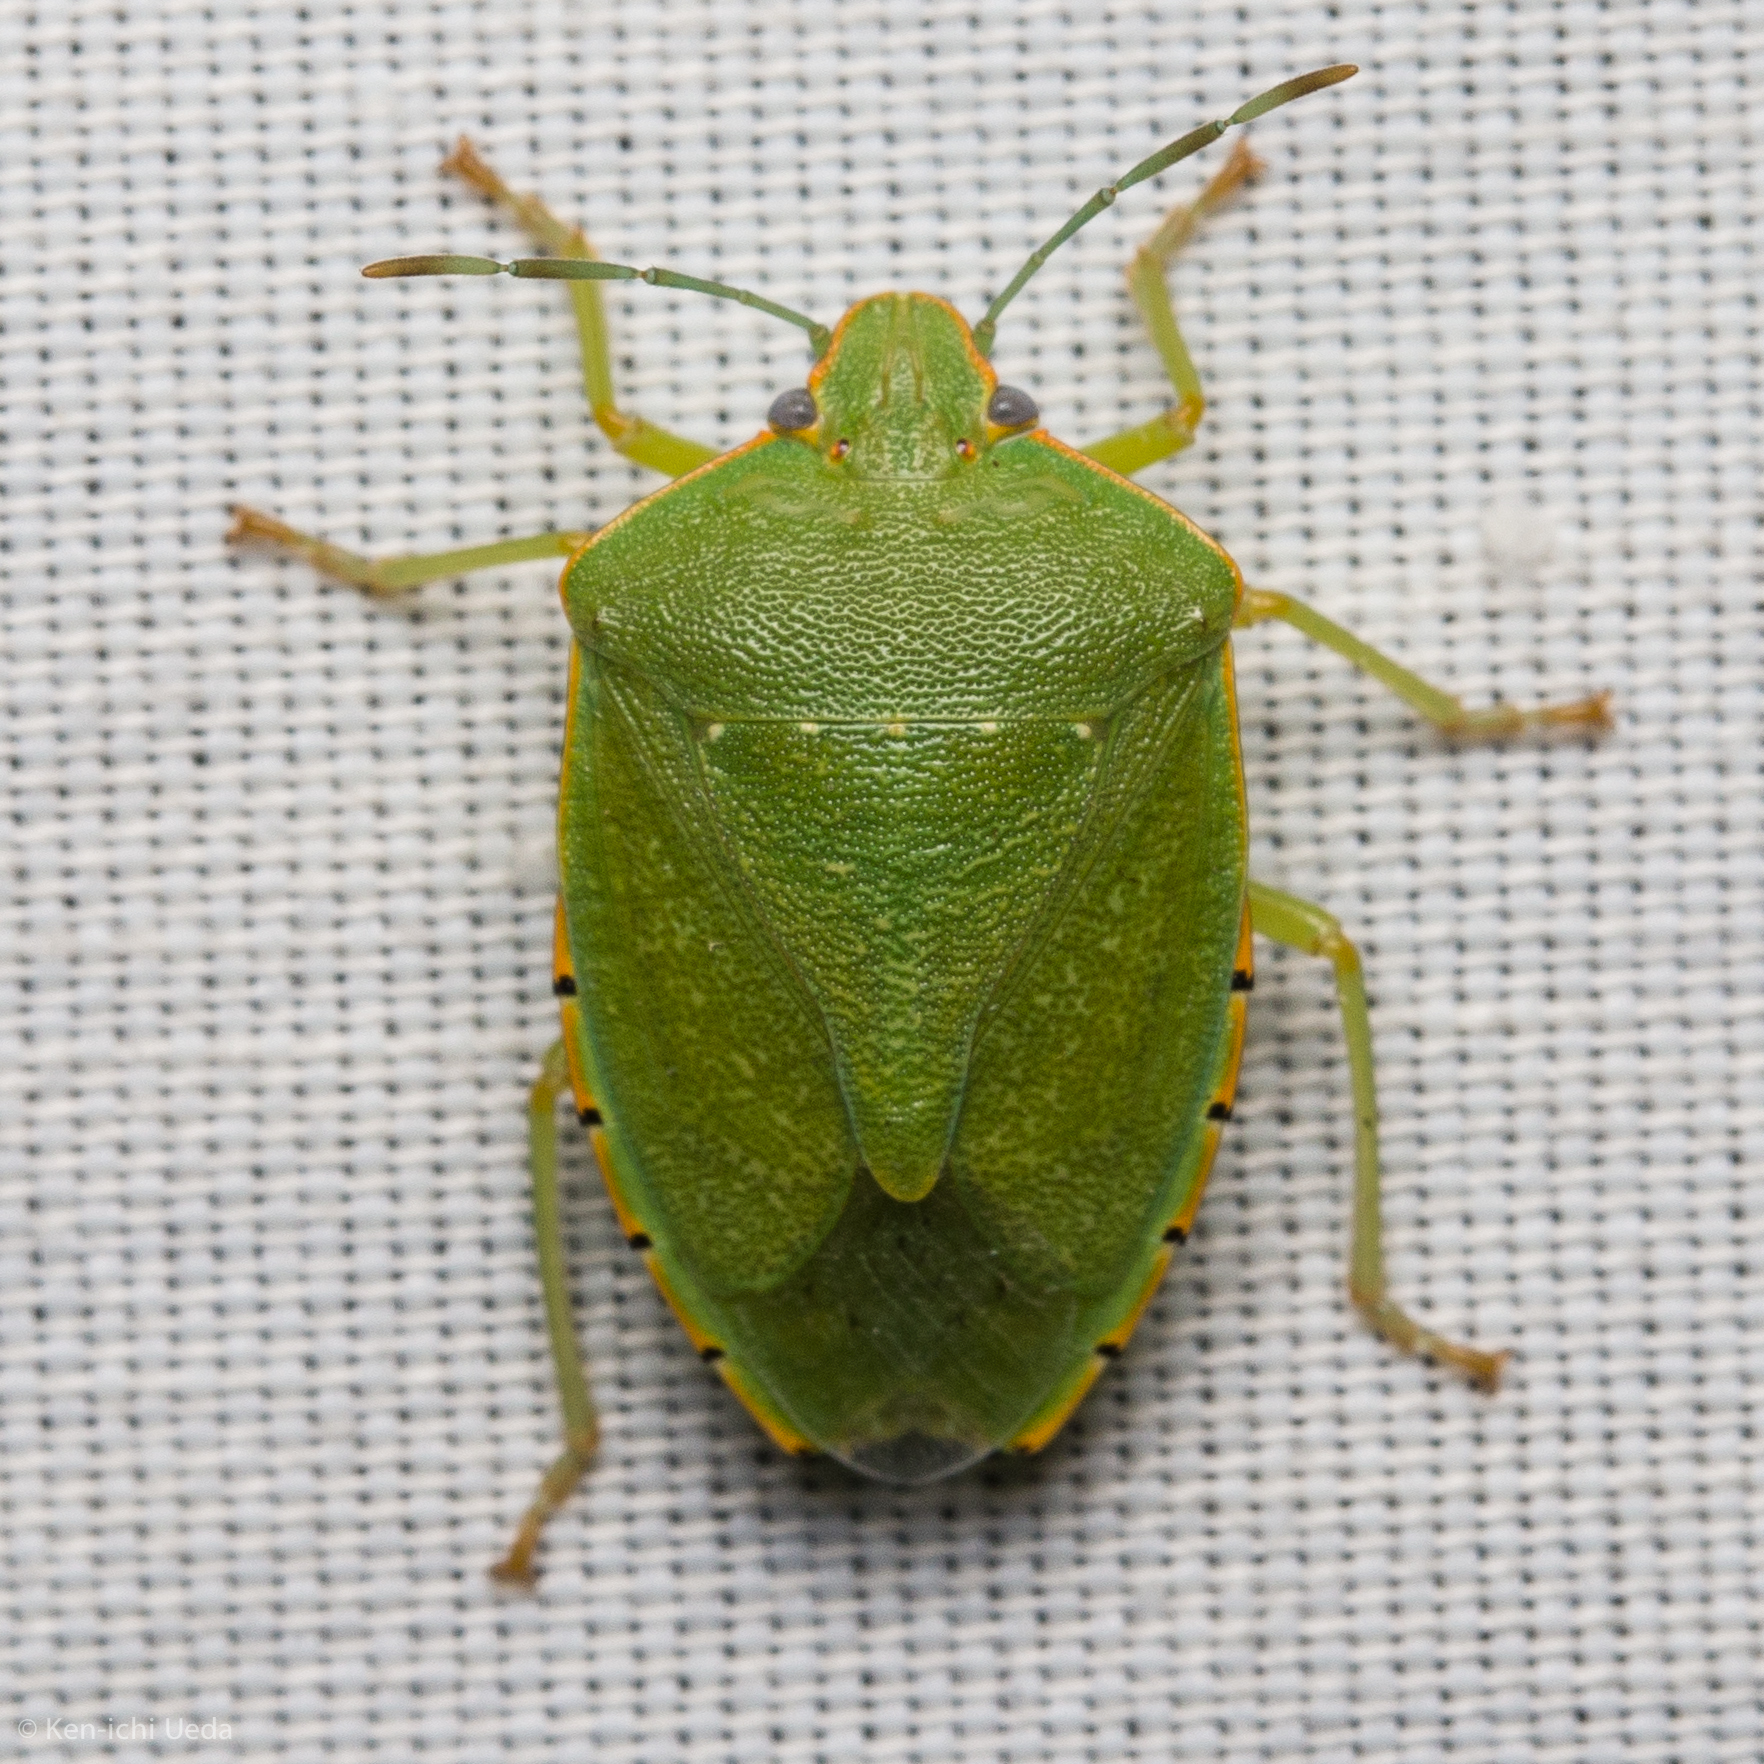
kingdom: Animalia
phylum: Arthropoda
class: Insecta
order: Hemiptera
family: Pentatomidae
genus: Chinavia
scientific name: Chinavia hilaris
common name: Green stink bug
